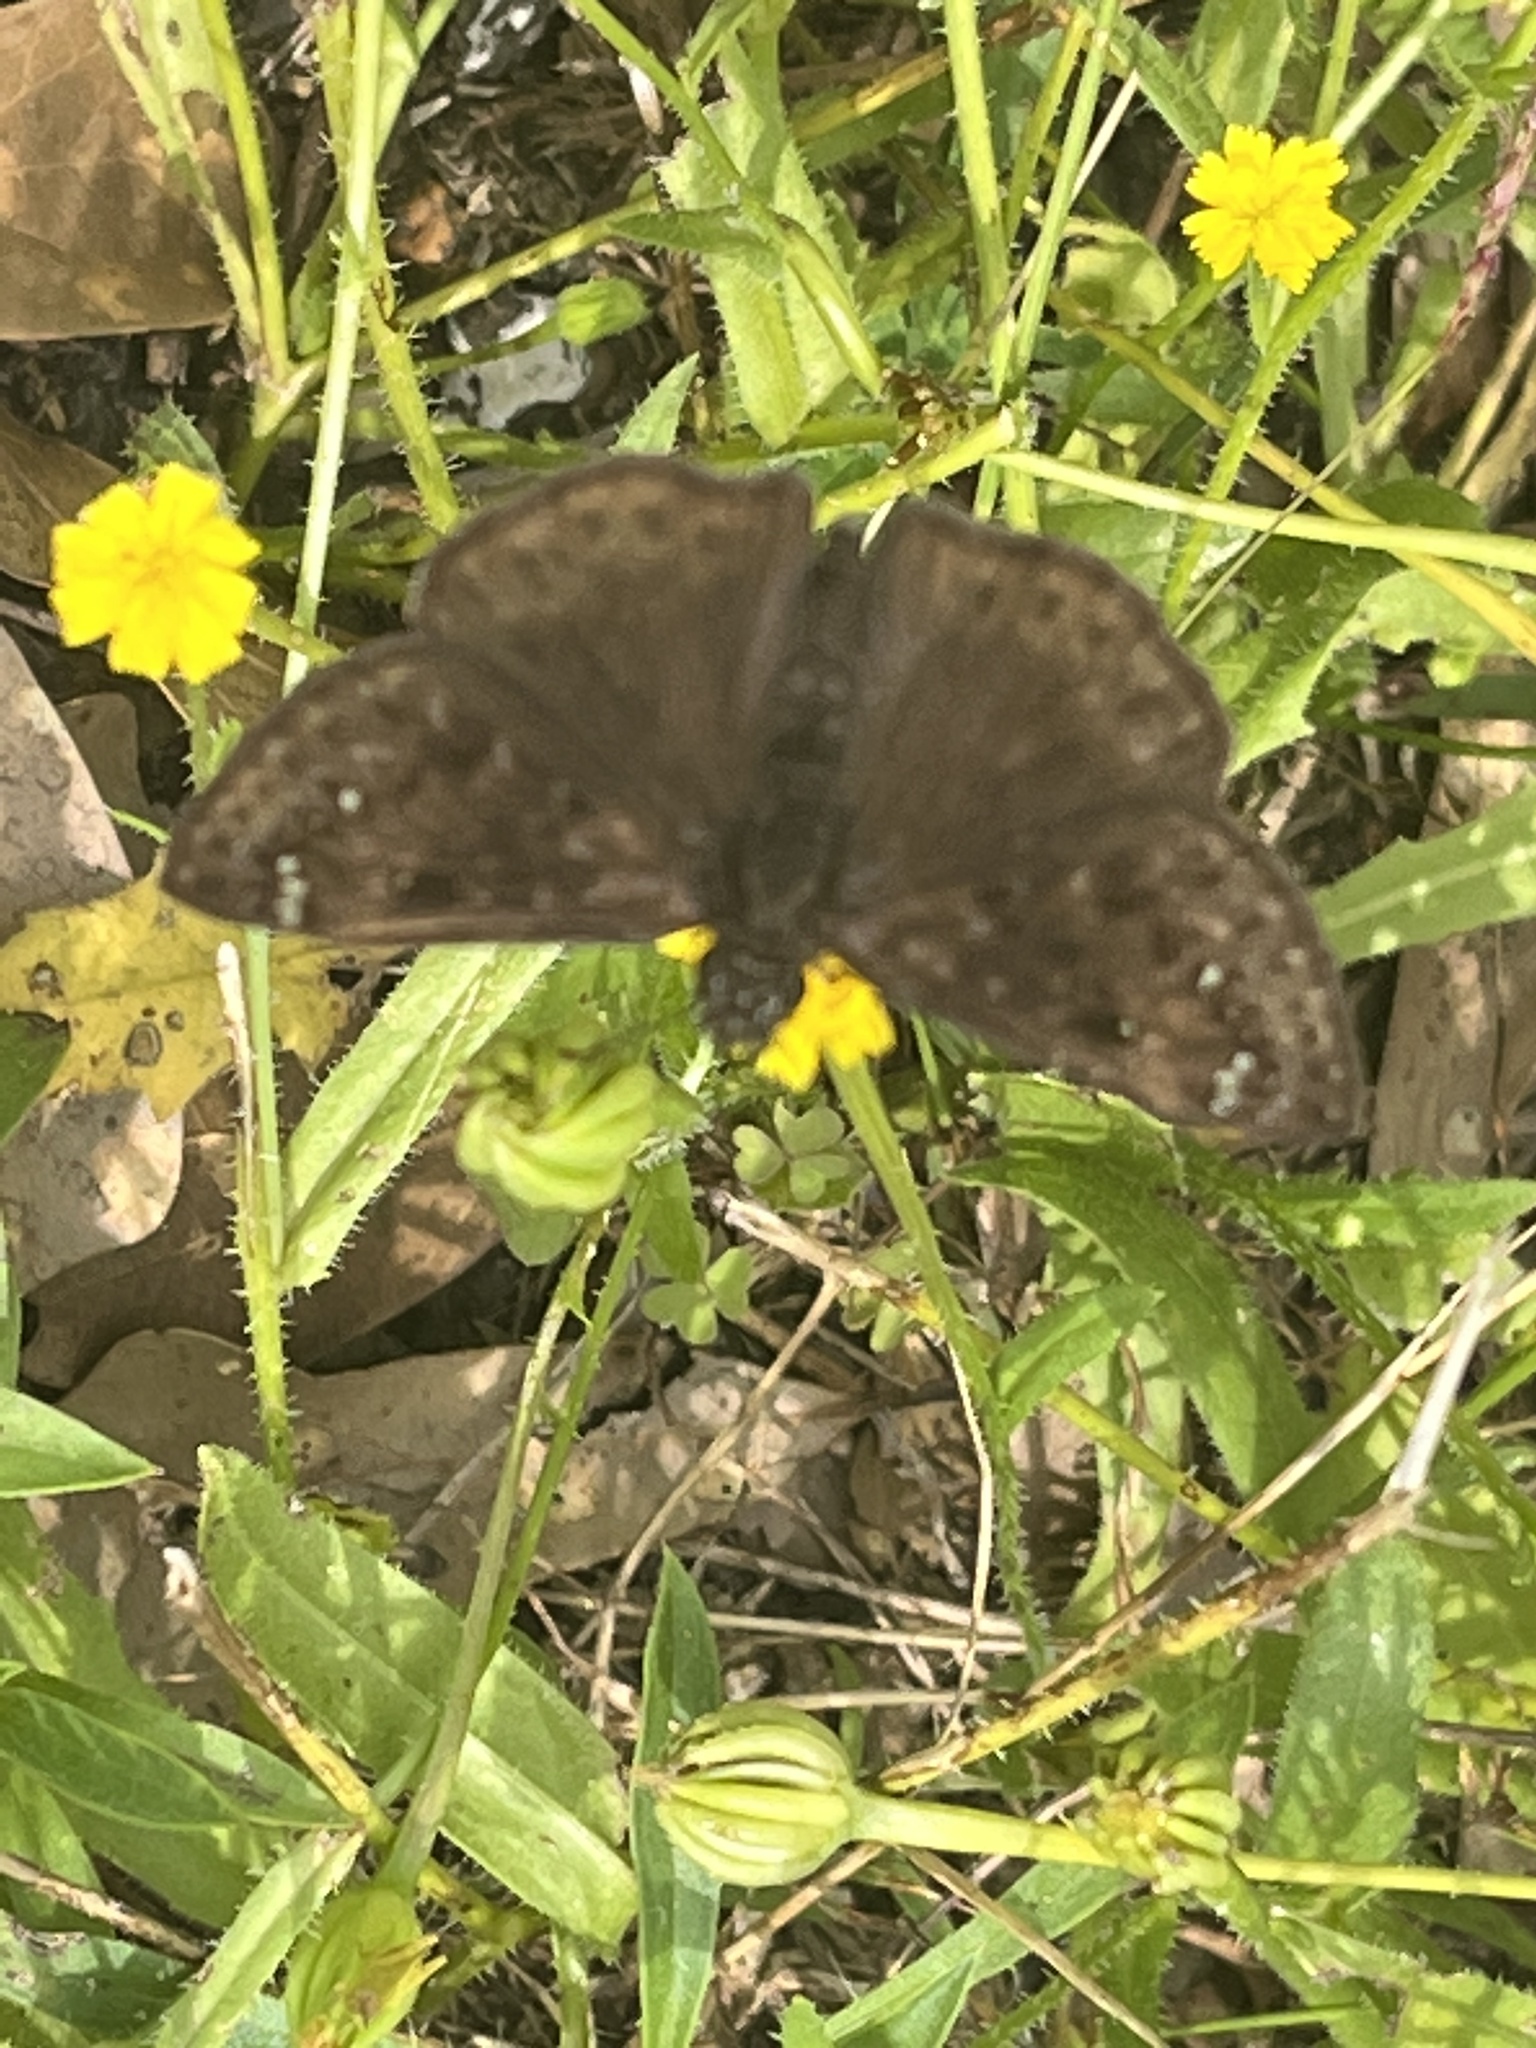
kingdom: Animalia
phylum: Arthropoda
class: Insecta
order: Lepidoptera
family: Hesperiidae
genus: Erynnis
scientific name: Erynnis horatius
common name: Horace's duskywing
